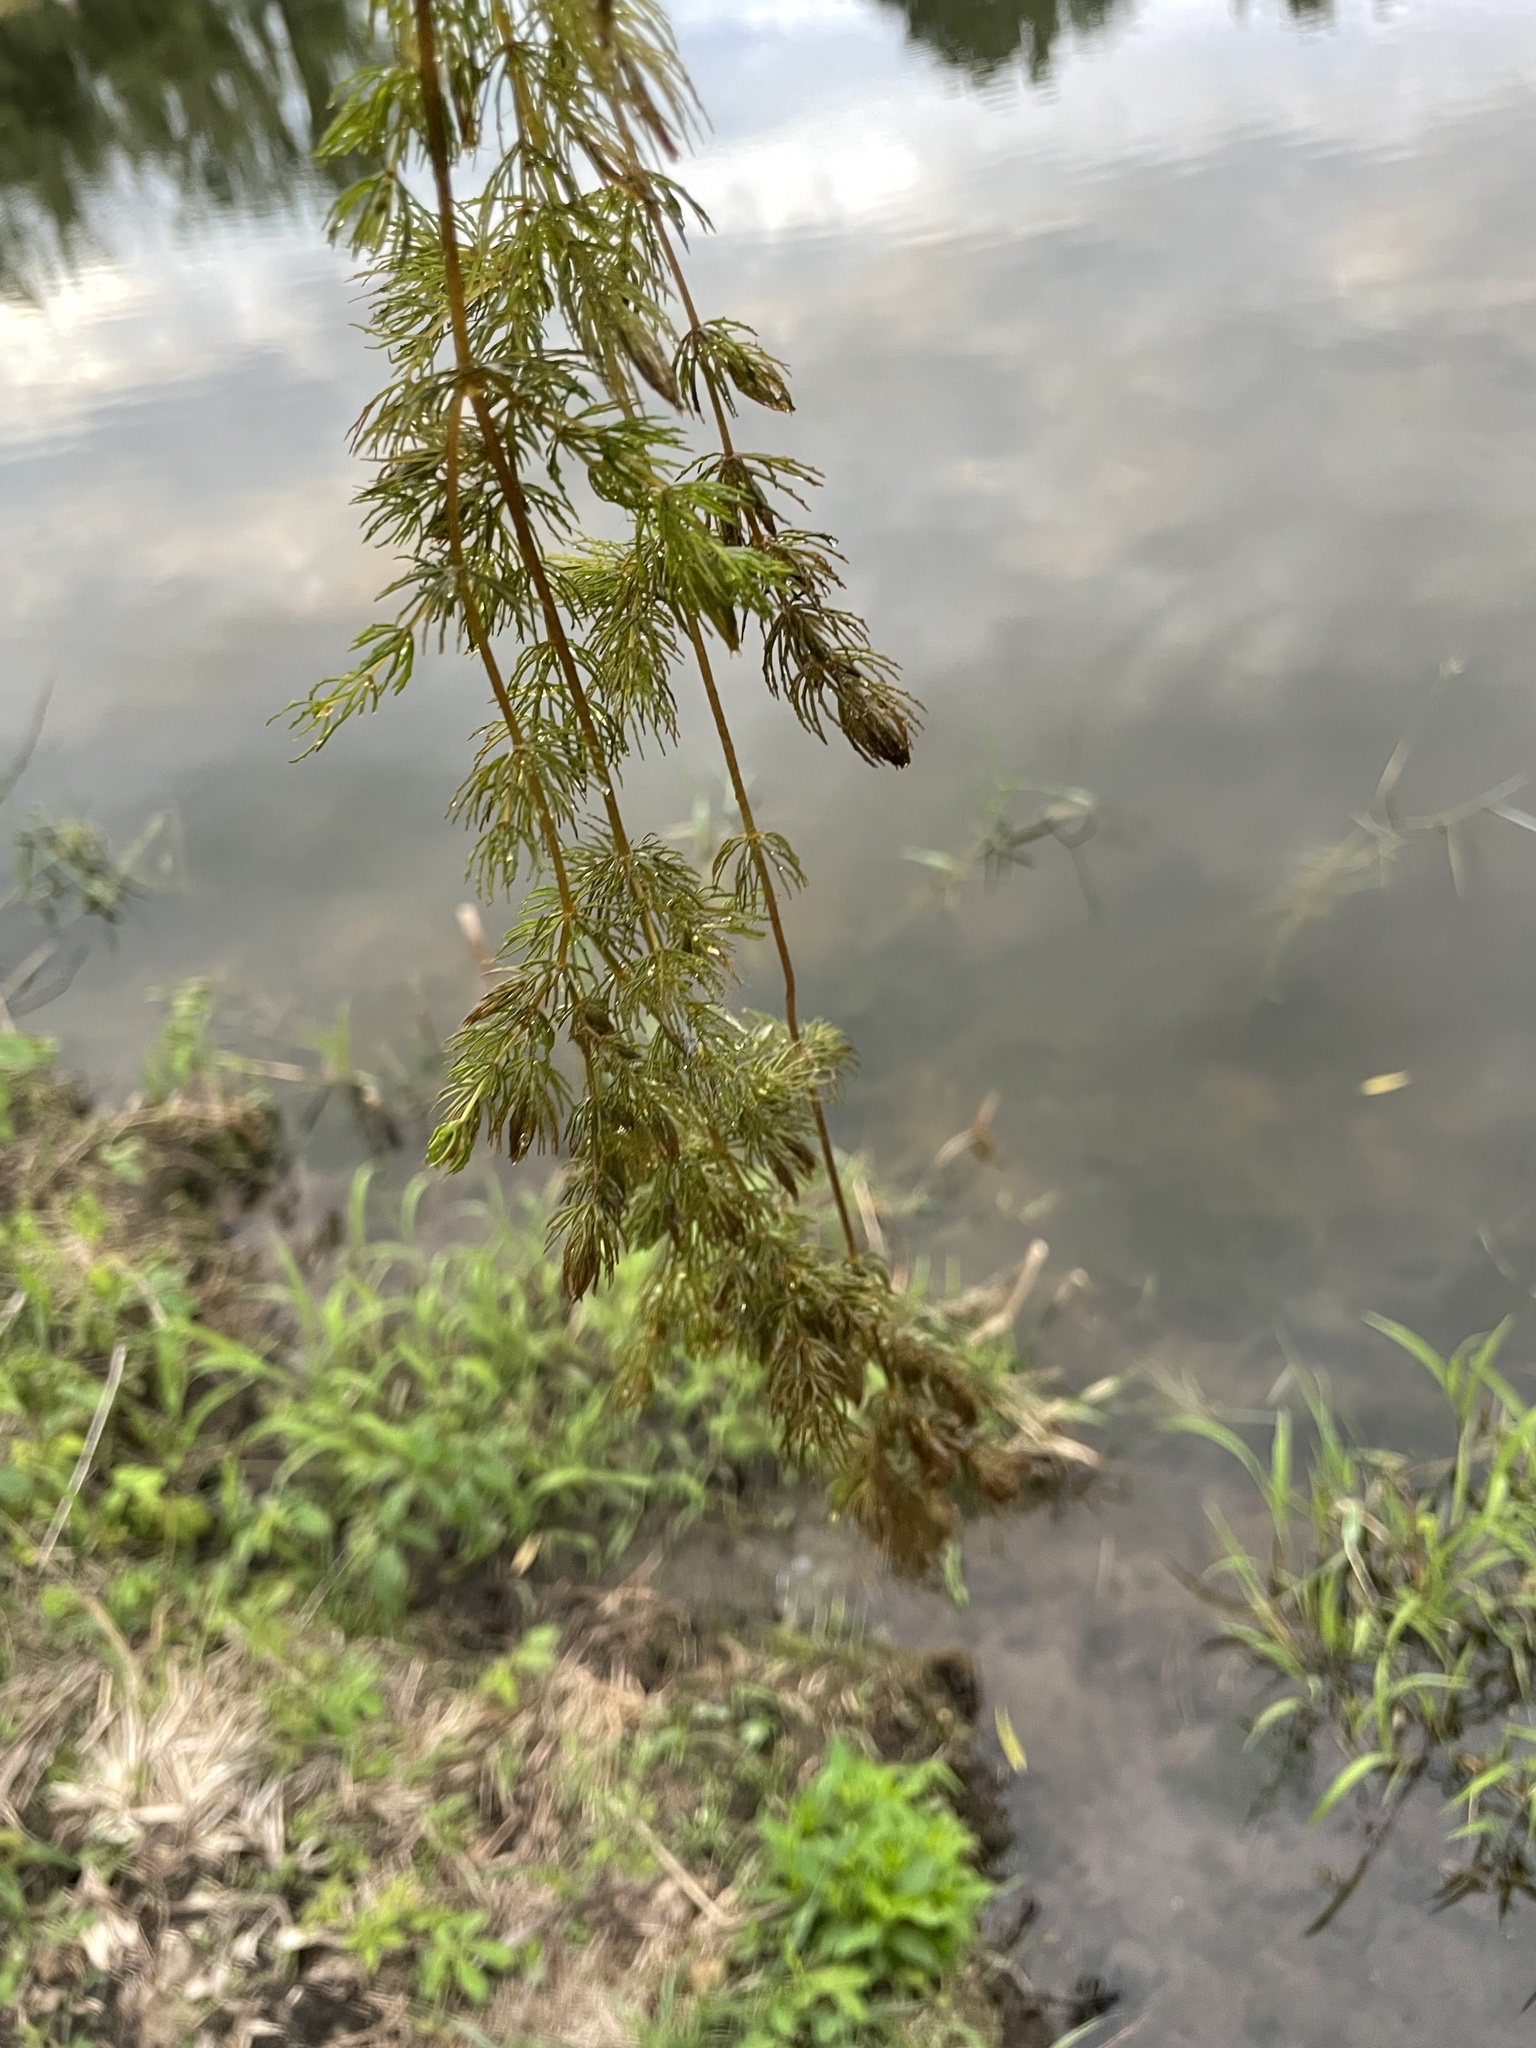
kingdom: Plantae
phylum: Tracheophyta
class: Magnoliopsida
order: Ceratophyllales
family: Ceratophyllaceae
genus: Ceratophyllum
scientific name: Ceratophyllum demersum
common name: Rigid hornwort
